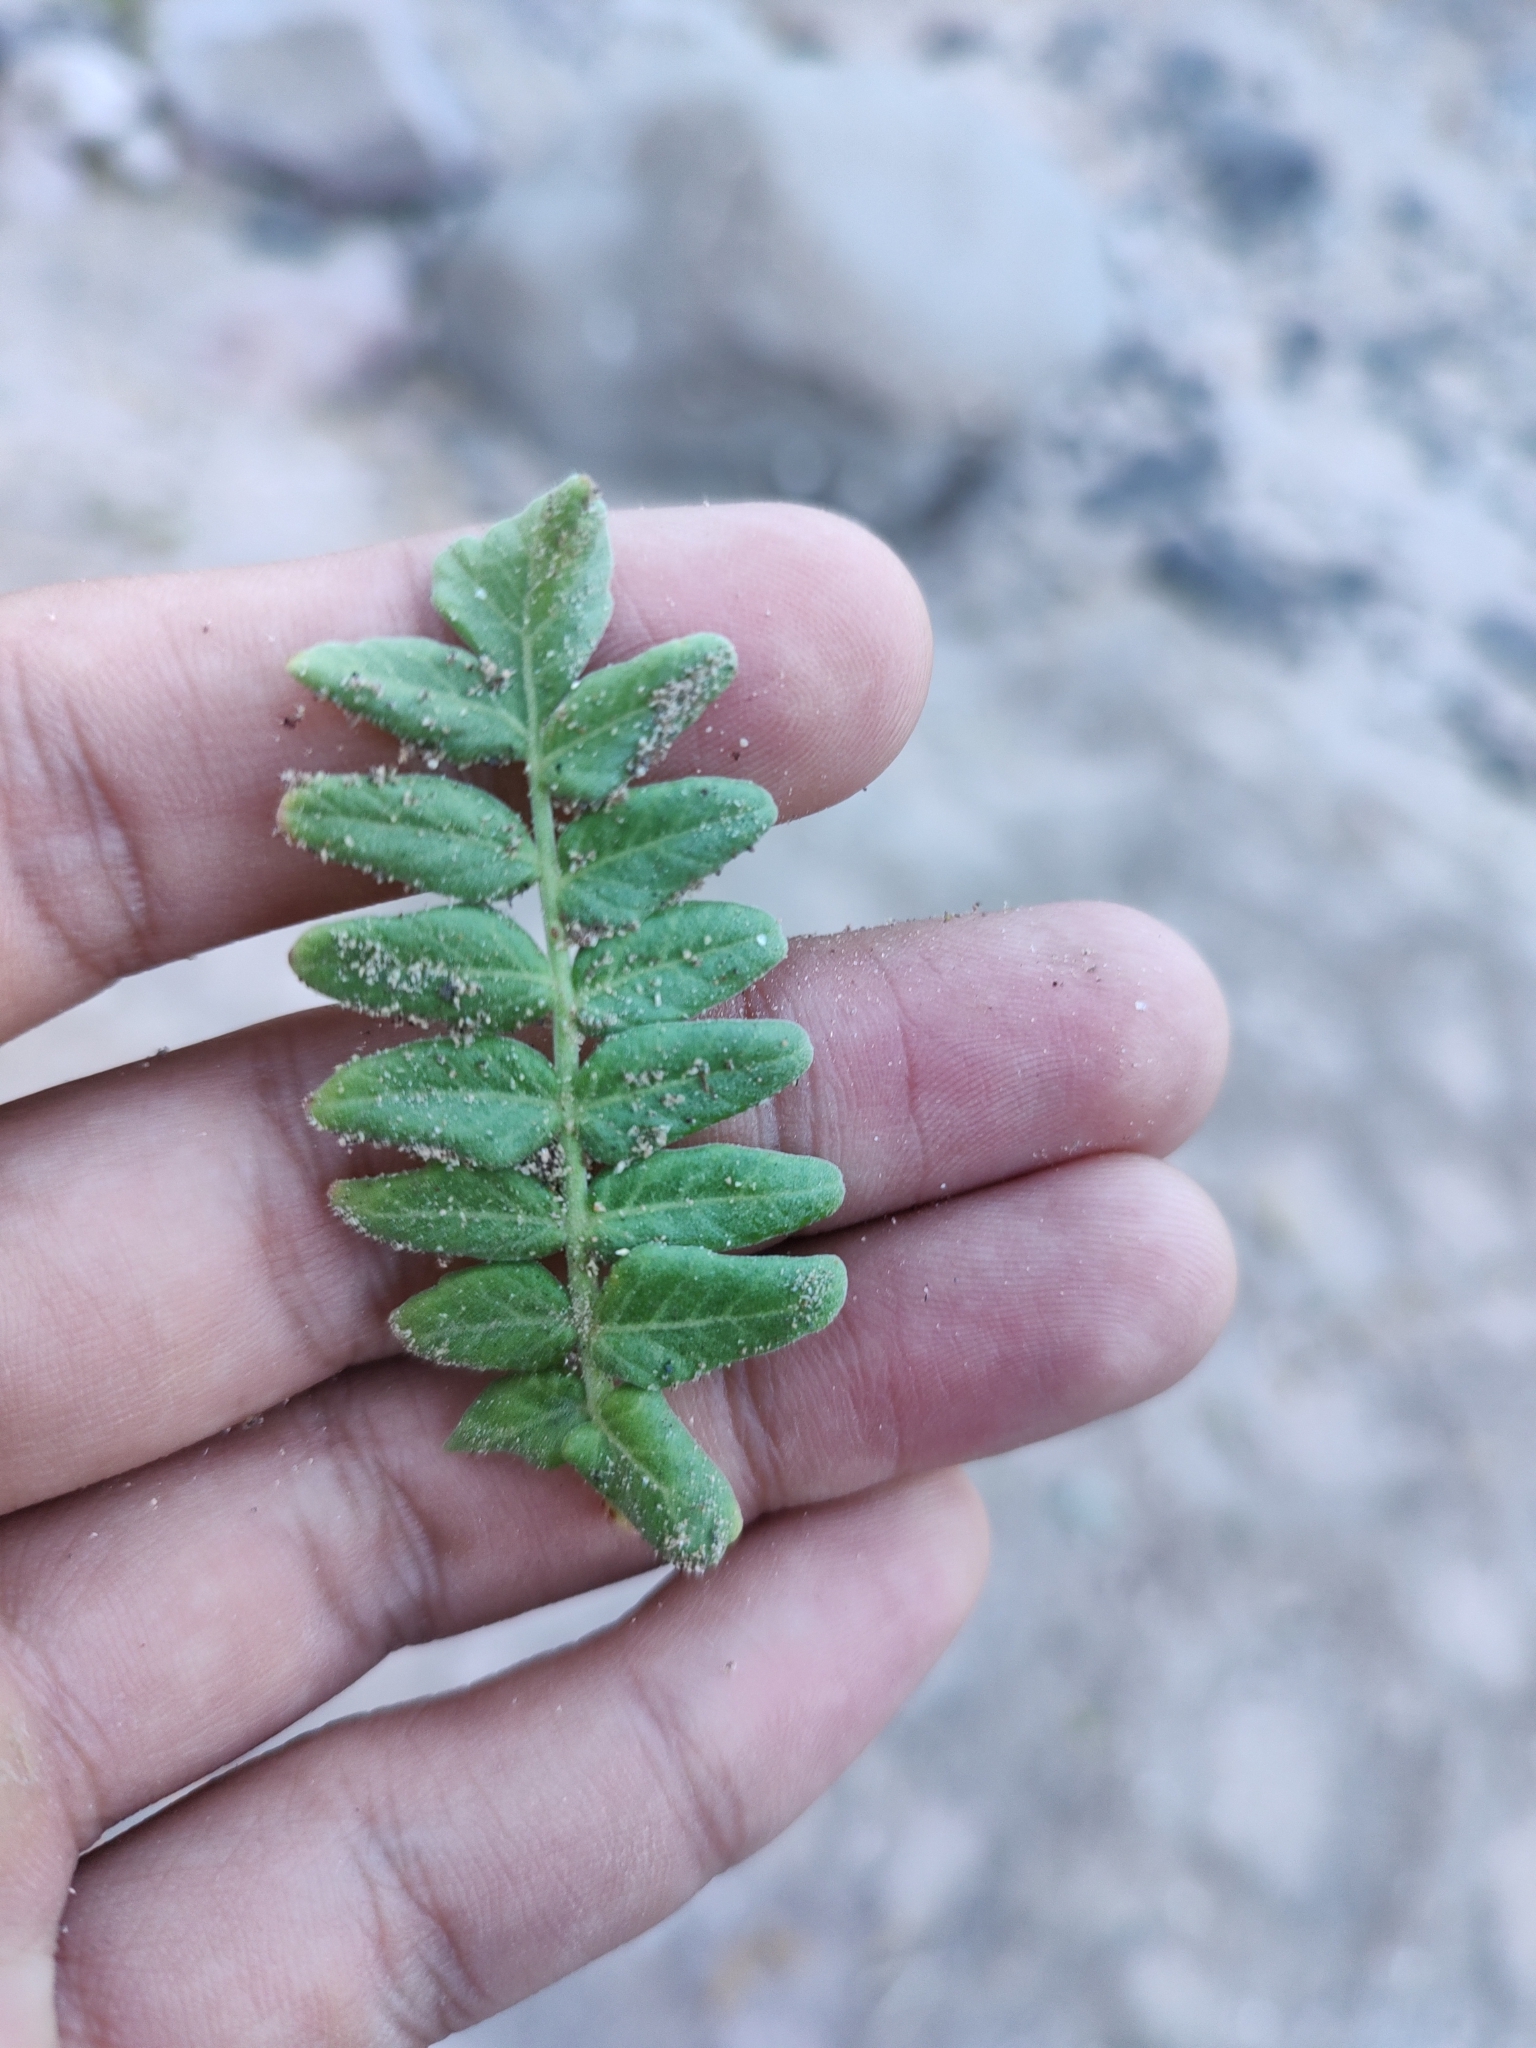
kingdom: Plantae
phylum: Tracheophyta
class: Magnoliopsida
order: Sapindales
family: Anacardiaceae
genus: Pachycormus
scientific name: Pachycormus discolor
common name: Succulent elephant trees
